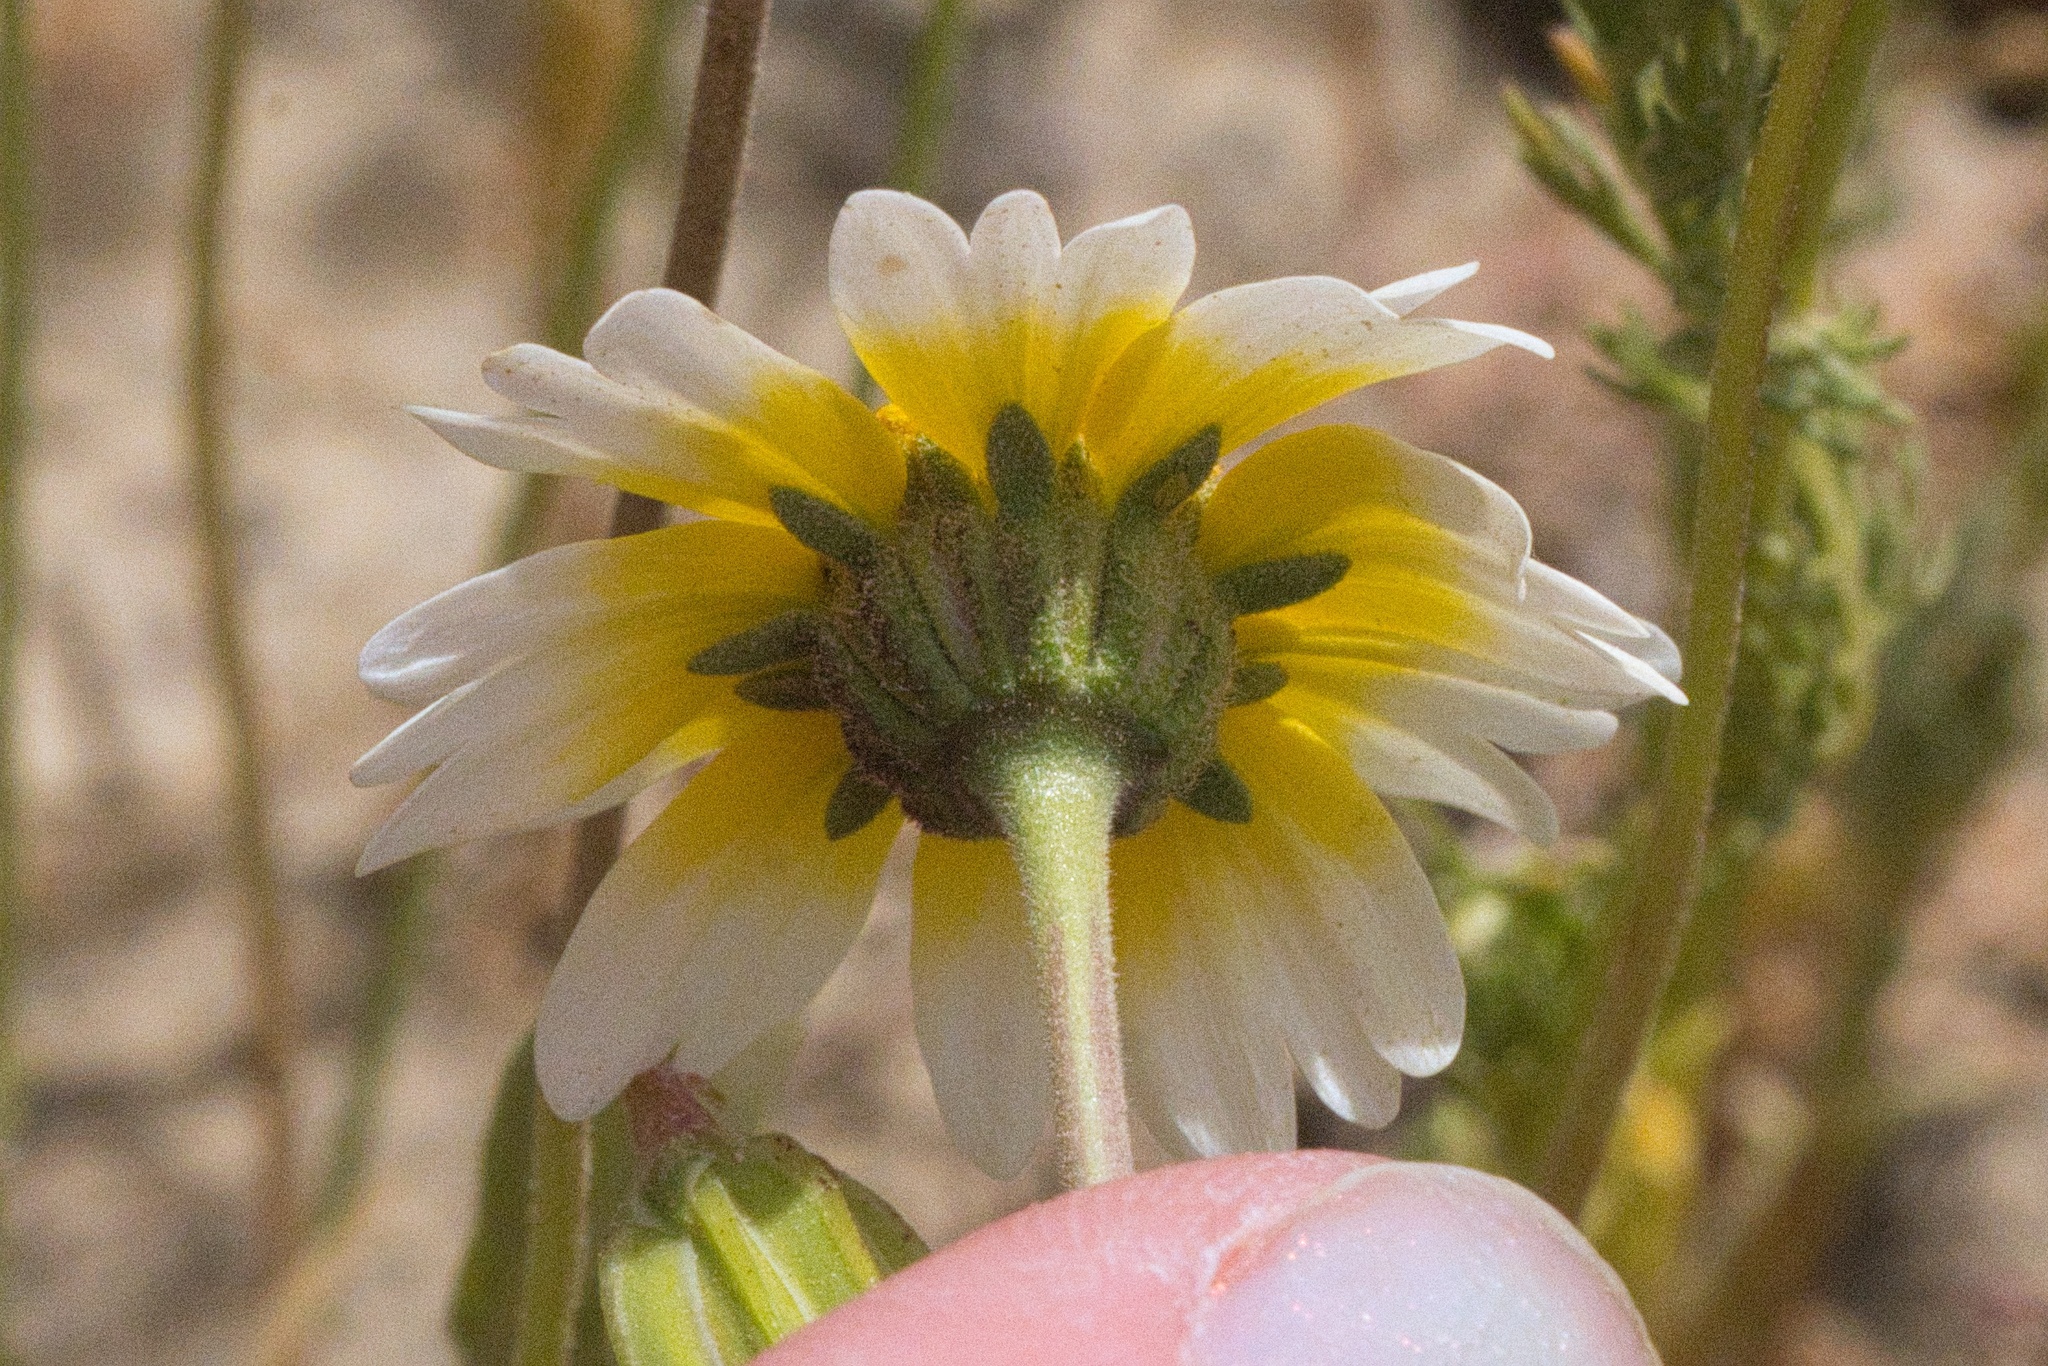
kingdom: Plantae
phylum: Tracheophyta
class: Magnoliopsida
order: Asterales
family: Asteraceae
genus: Layia
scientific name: Layia munzii
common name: Munz's tidy-tips
